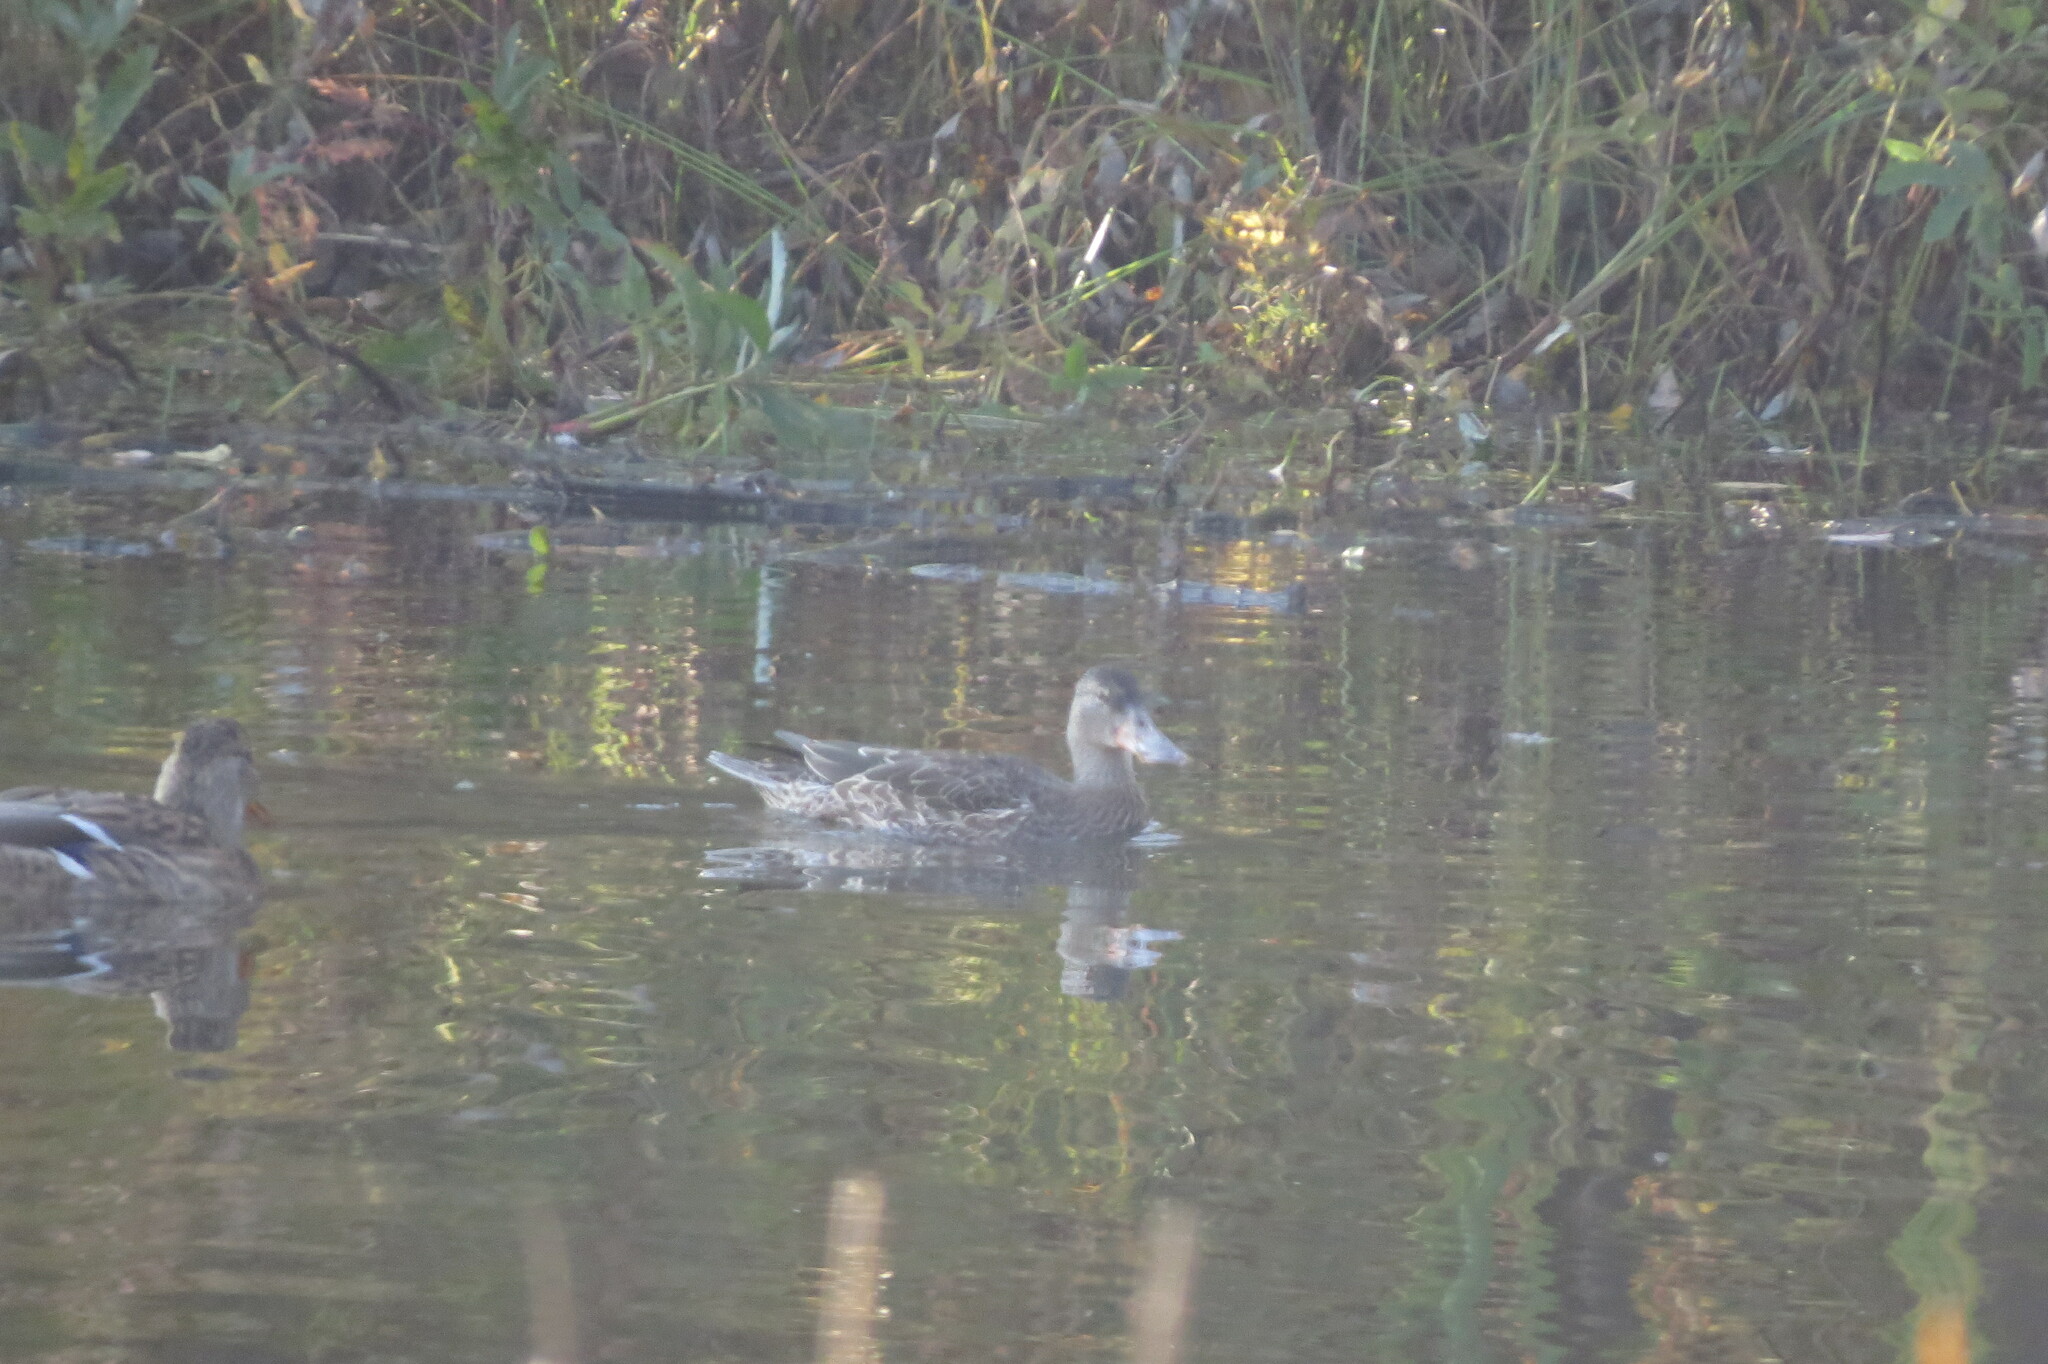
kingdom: Animalia
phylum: Chordata
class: Aves
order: Anseriformes
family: Anatidae
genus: Spatula
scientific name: Spatula clypeata
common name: Northern shoveler
